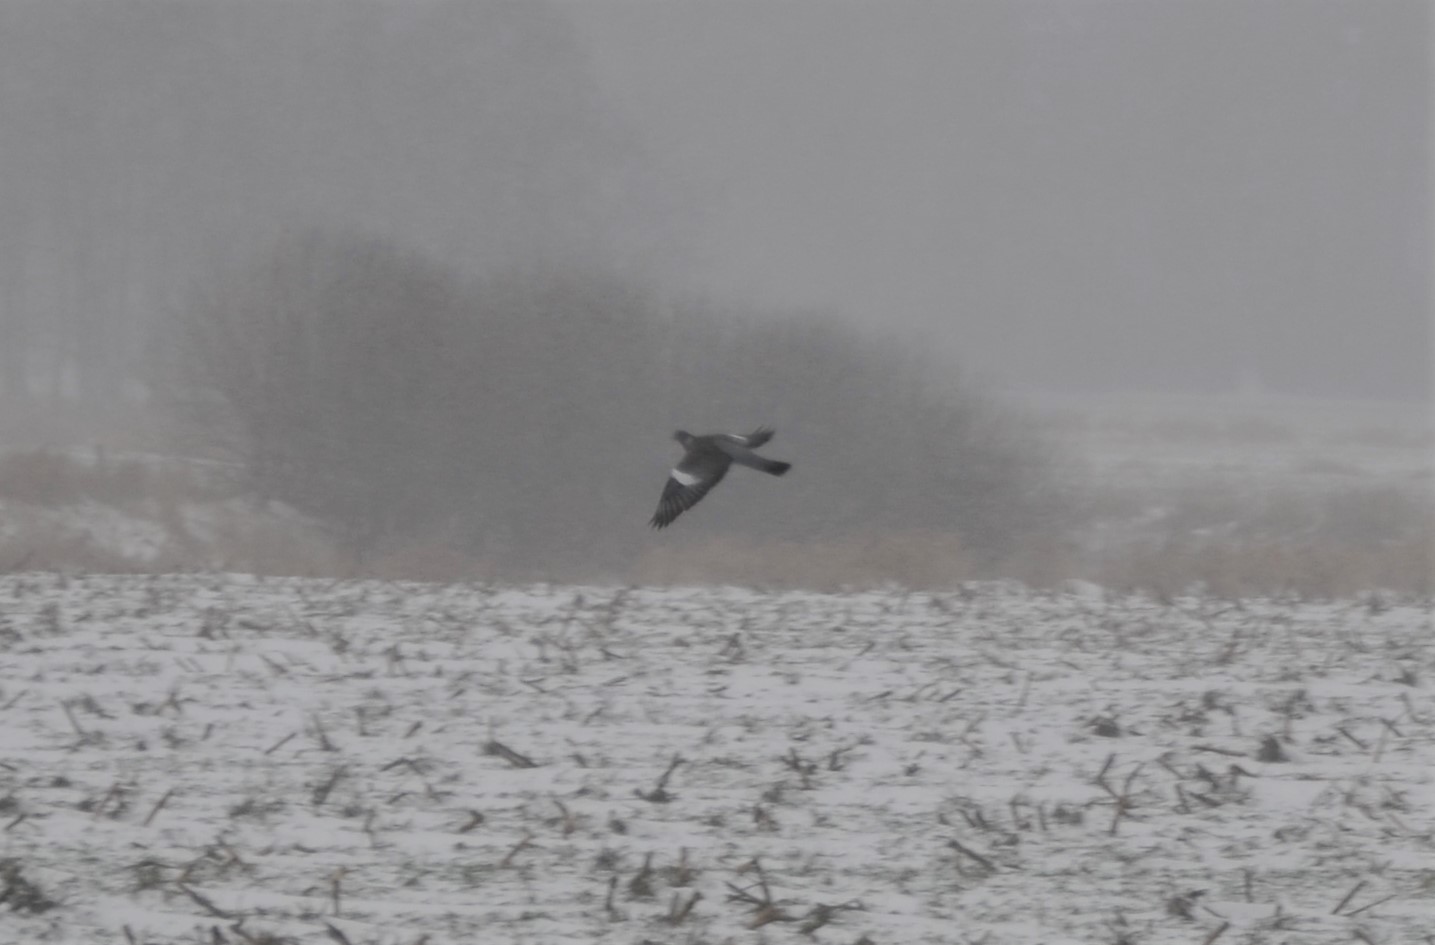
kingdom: Animalia
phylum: Chordata
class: Aves
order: Columbiformes
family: Columbidae
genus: Columba
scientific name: Columba palumbus
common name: Common wood pigeon
